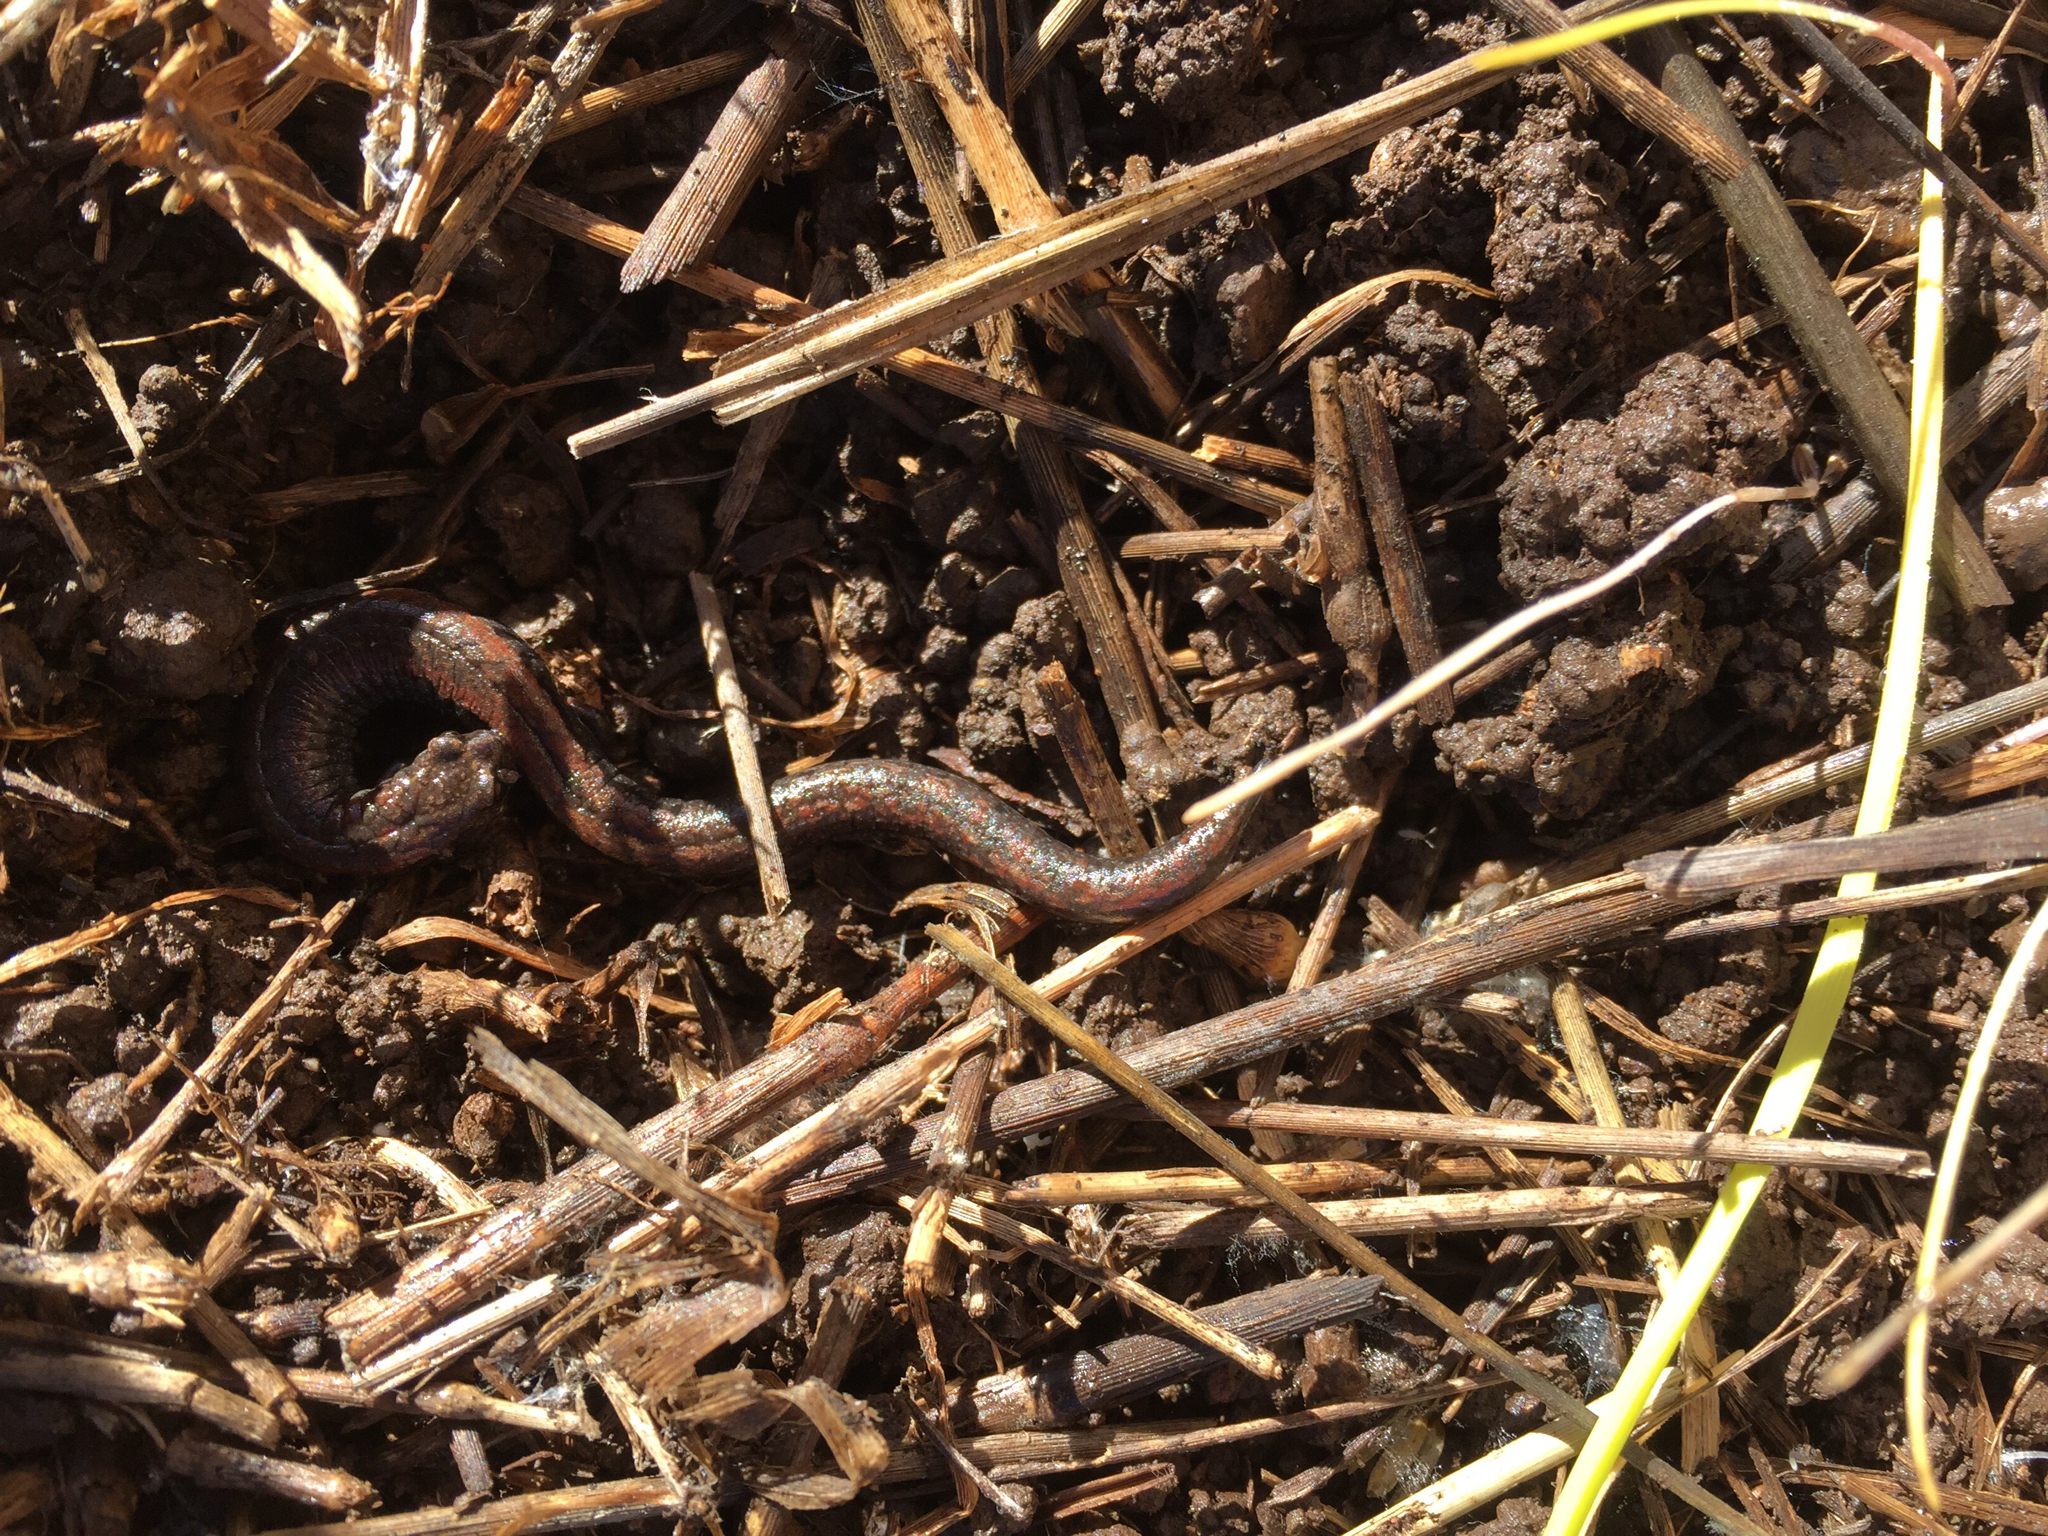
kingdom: Animalia
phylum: Chordata
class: Amphibia
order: Caudata
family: Plethodontidae
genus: Batrachoseps
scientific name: Batrachoseps attenuatus
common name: California slender salamander
